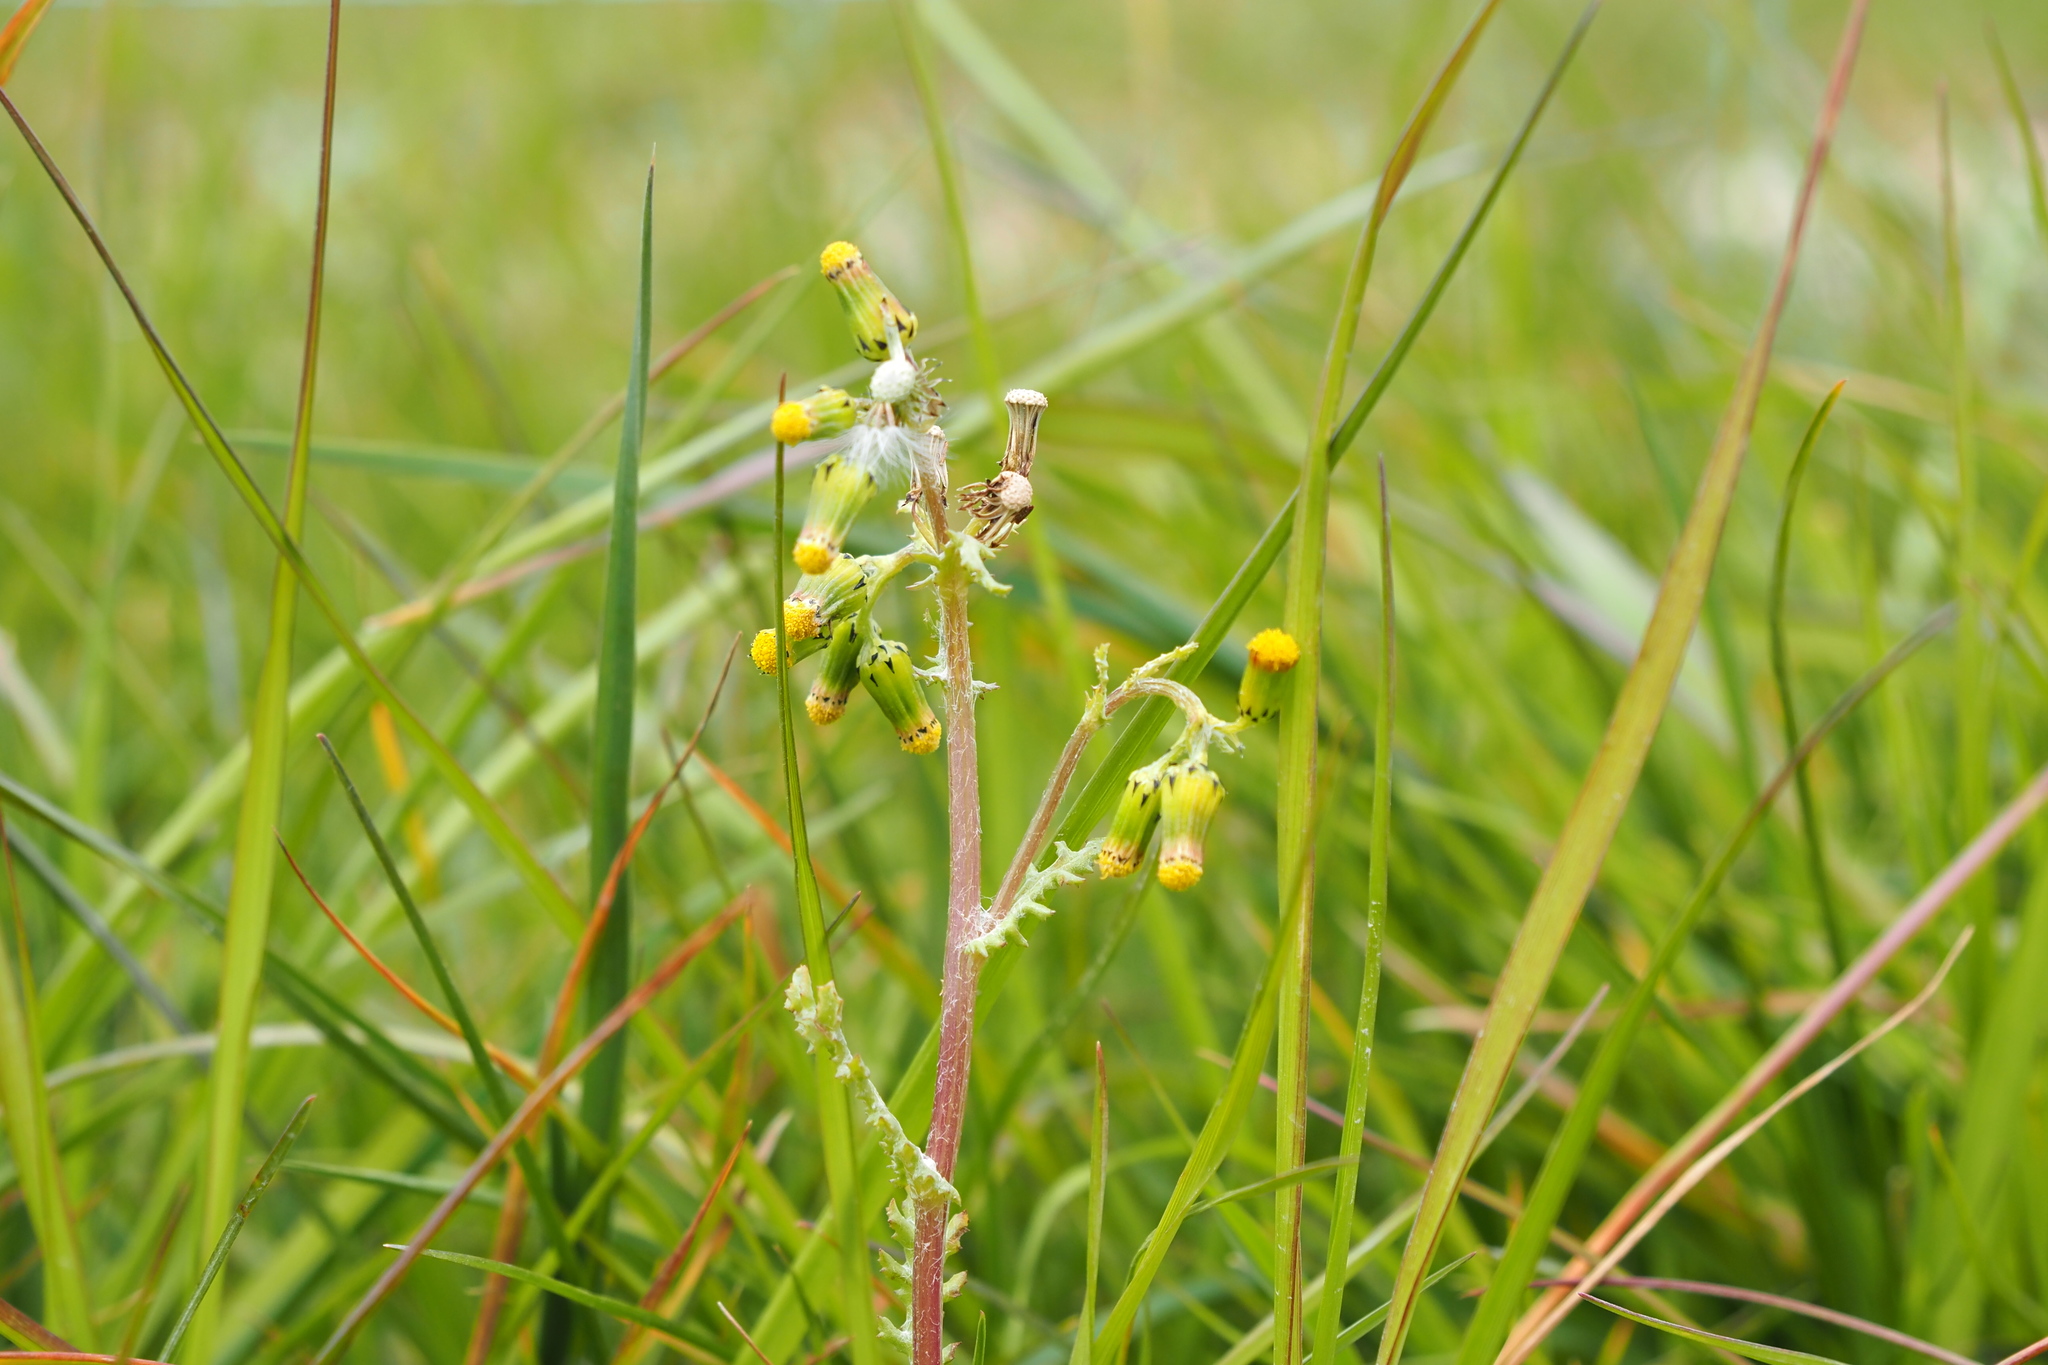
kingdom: Plantae
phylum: Tracheophyta
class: Magnoliopsida
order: Asterales
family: Asteraceae
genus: Senecio
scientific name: Senecio vulgaris
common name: Old-man-in-the-spring
